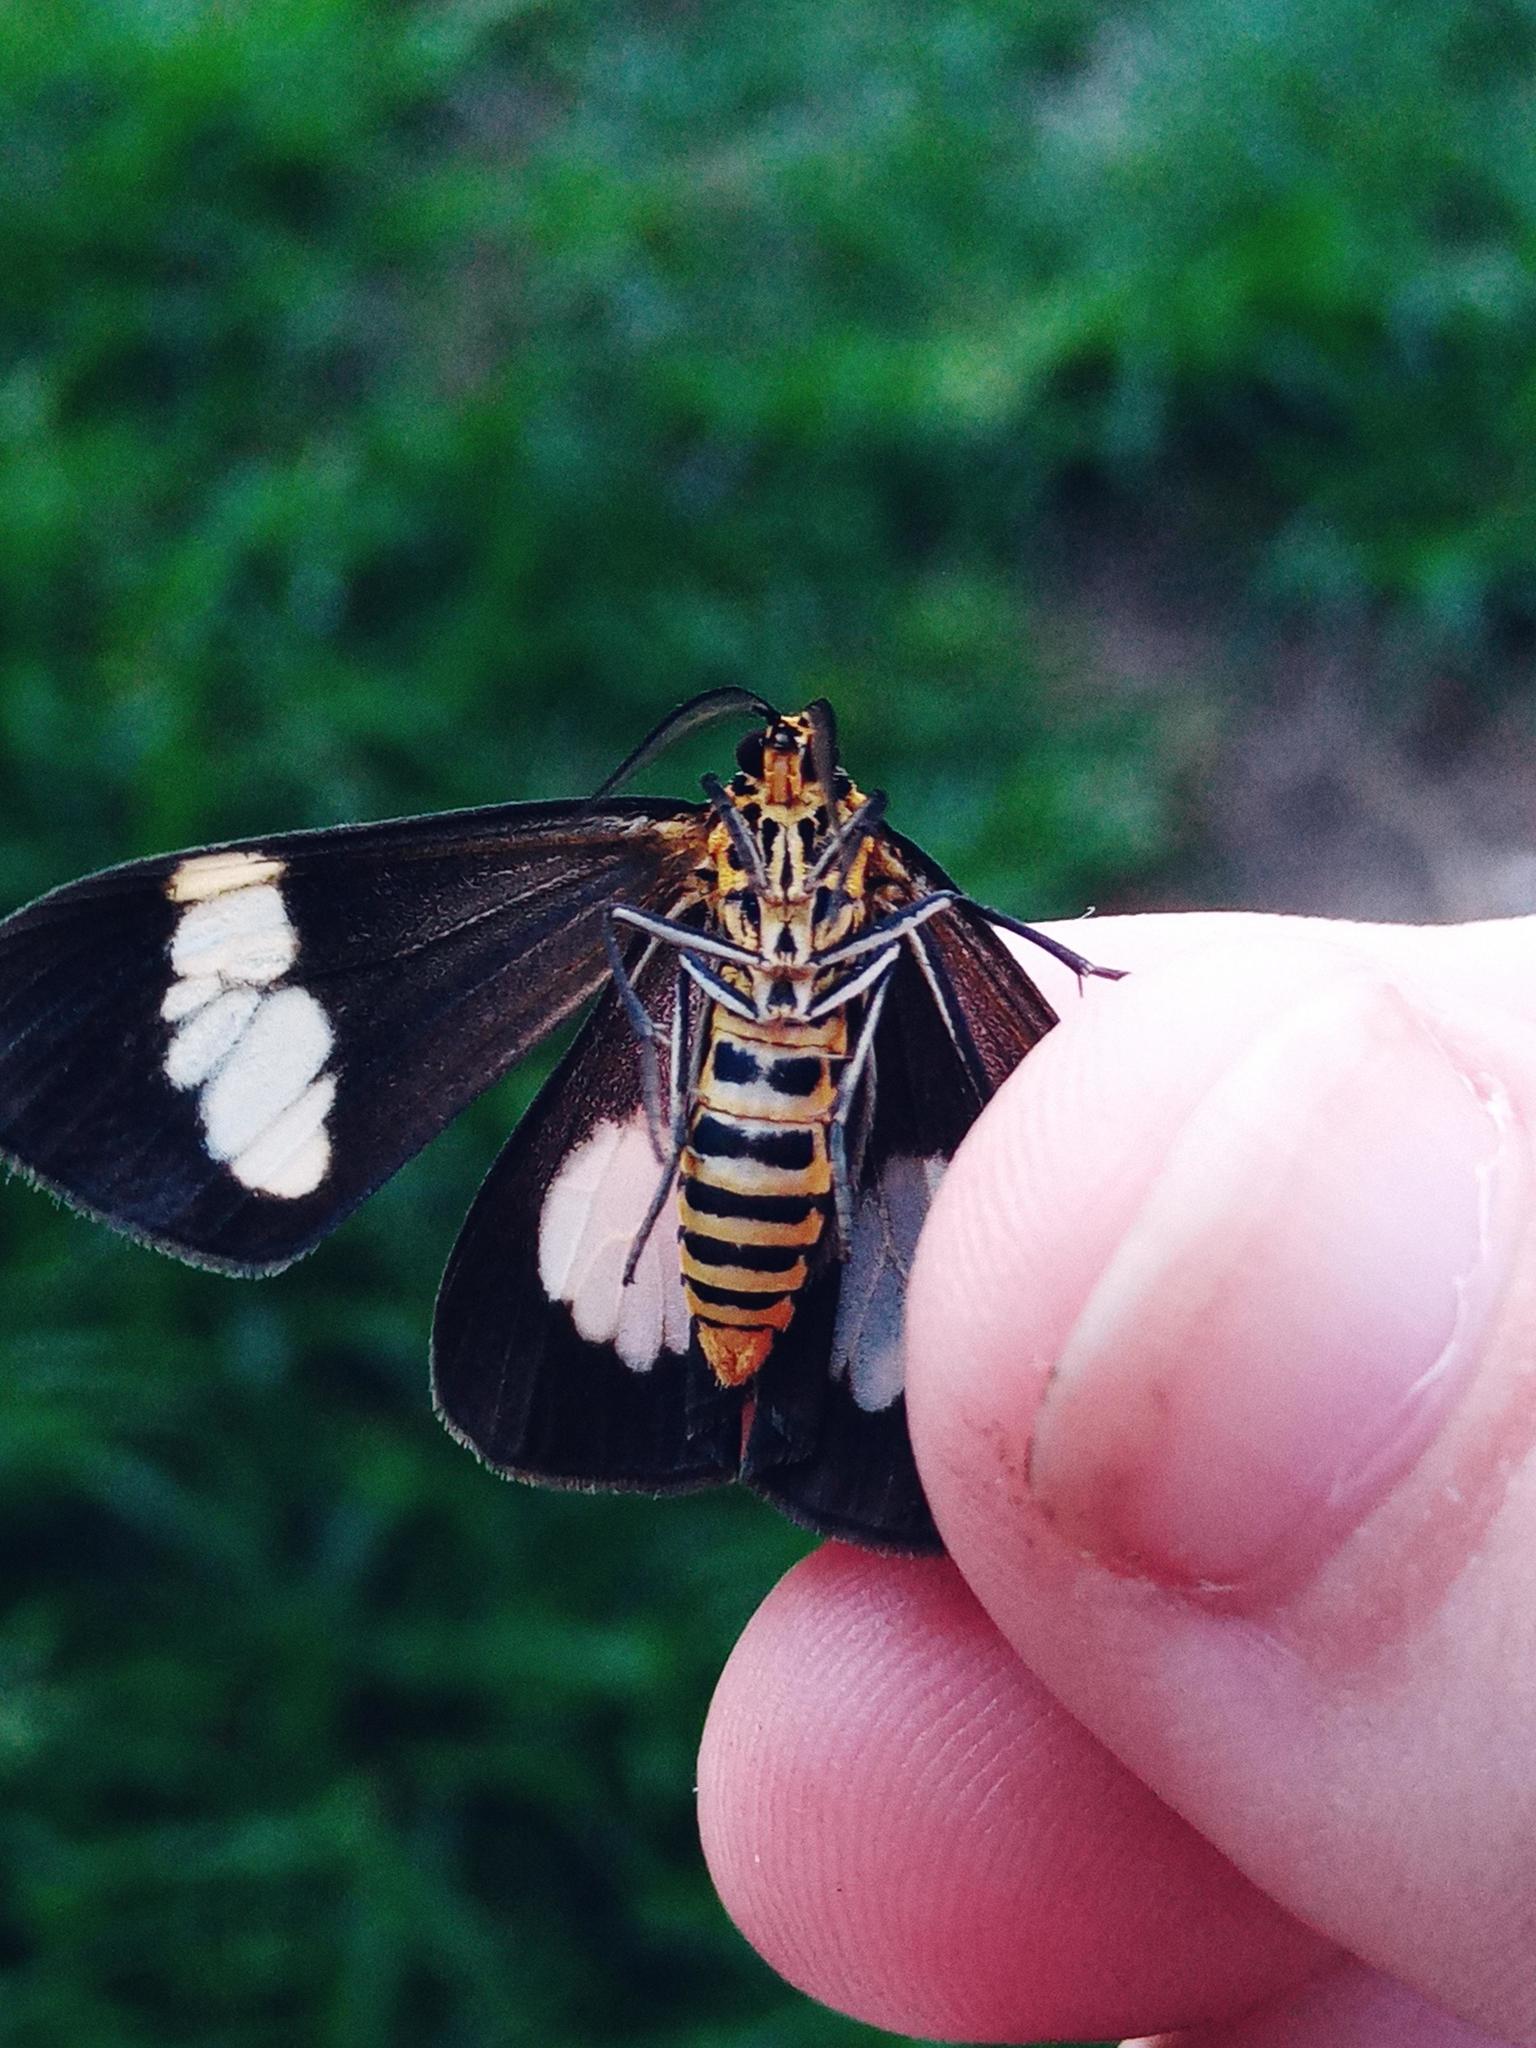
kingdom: Animalia
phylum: Arthropoda
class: Insecta
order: Lepidoptera
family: Erebidae
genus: Nyctemera
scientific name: Nyctemera baulus
